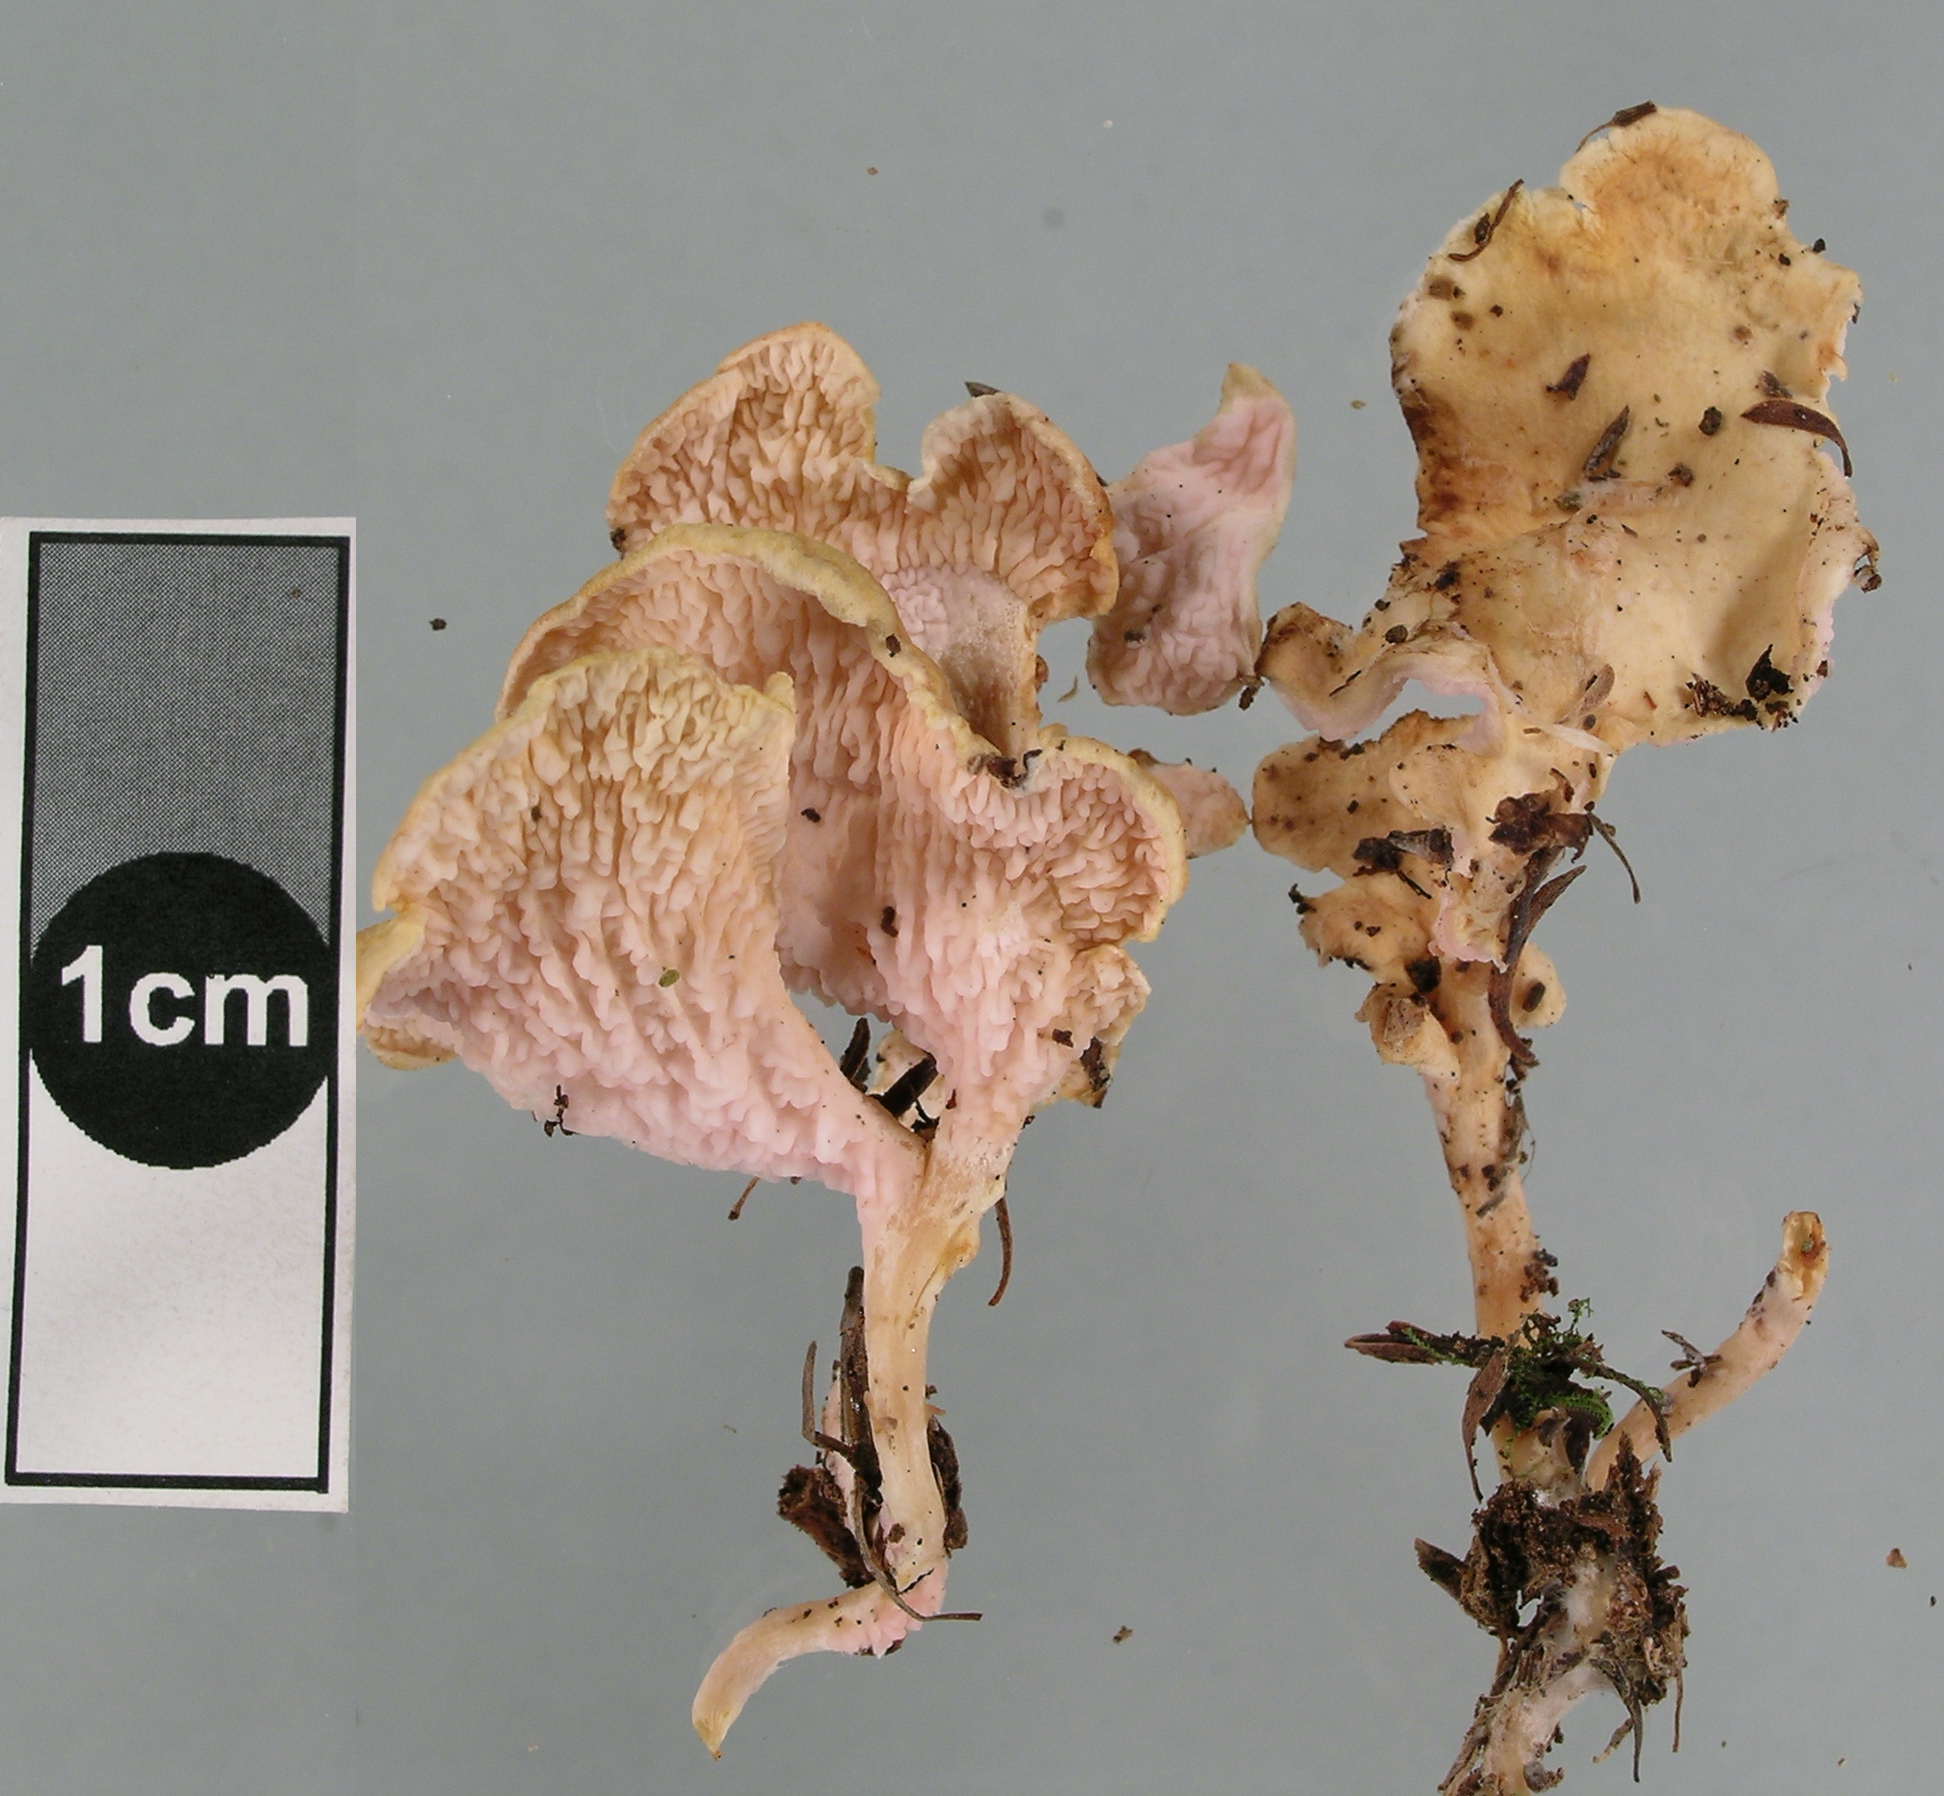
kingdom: Fungi
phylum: Basidiomycota
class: Agaricomycetes
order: Amylocorticiales
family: Amylocorticiaceae
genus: Podoserpula
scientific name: Podoserpula pusio
